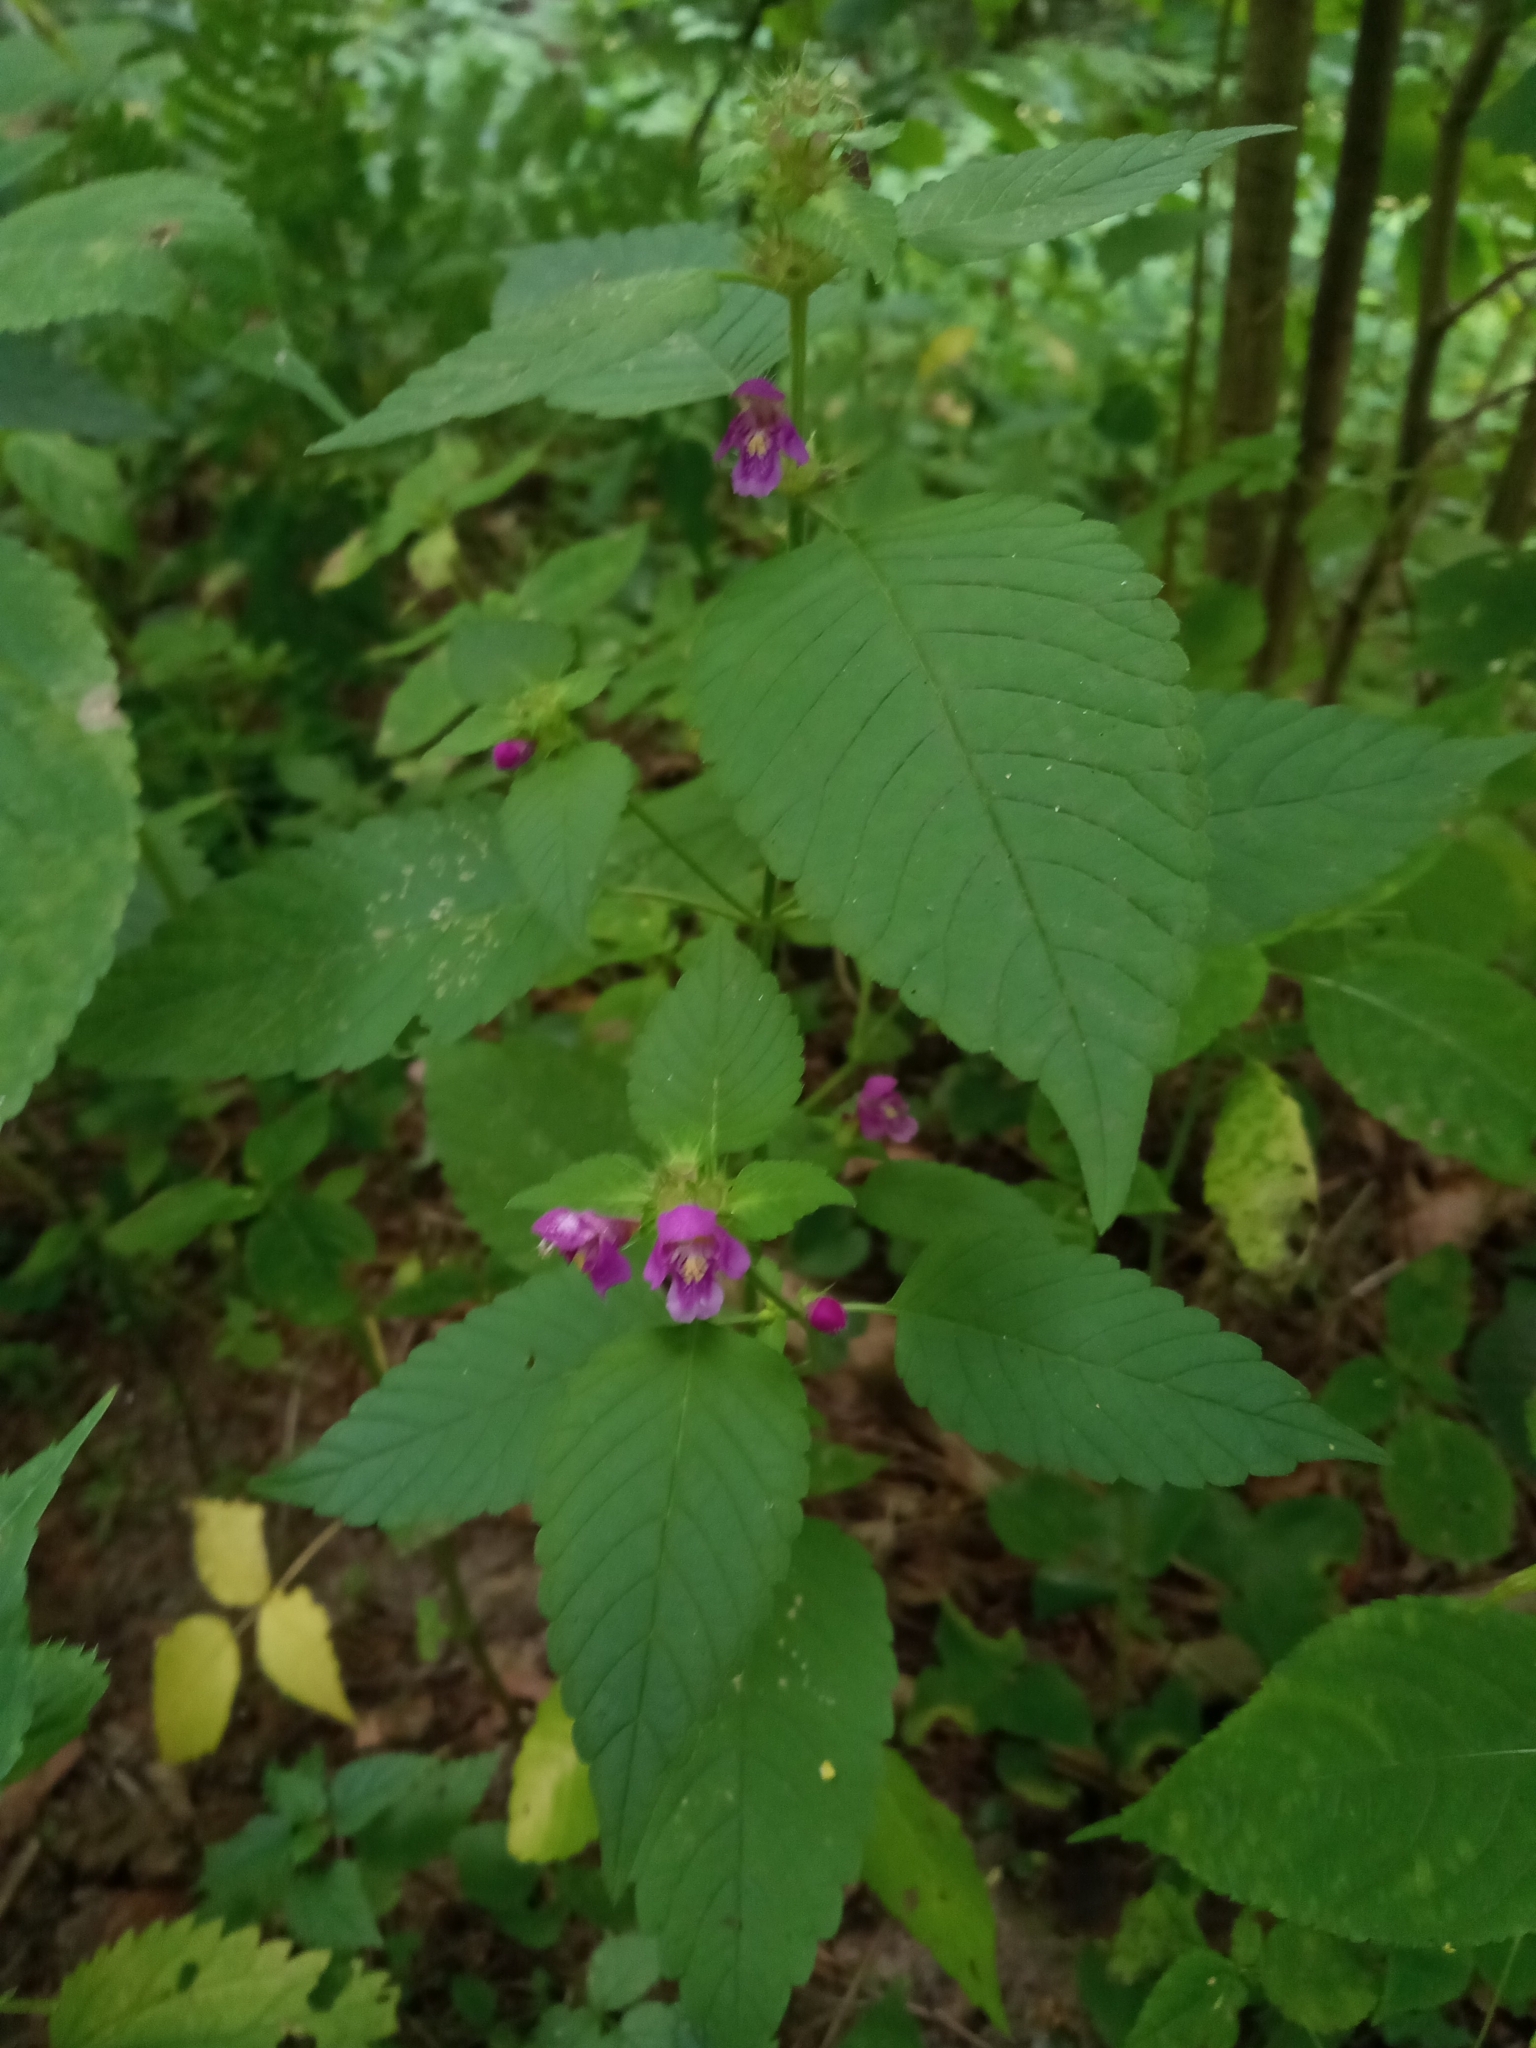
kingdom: Plantae
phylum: Tracheophyta
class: Magnoliopsida
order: Lamiales
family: Lamiaceae
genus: Galeopsis
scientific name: Galeopsis pubescens
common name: Downy hemp-nettle
